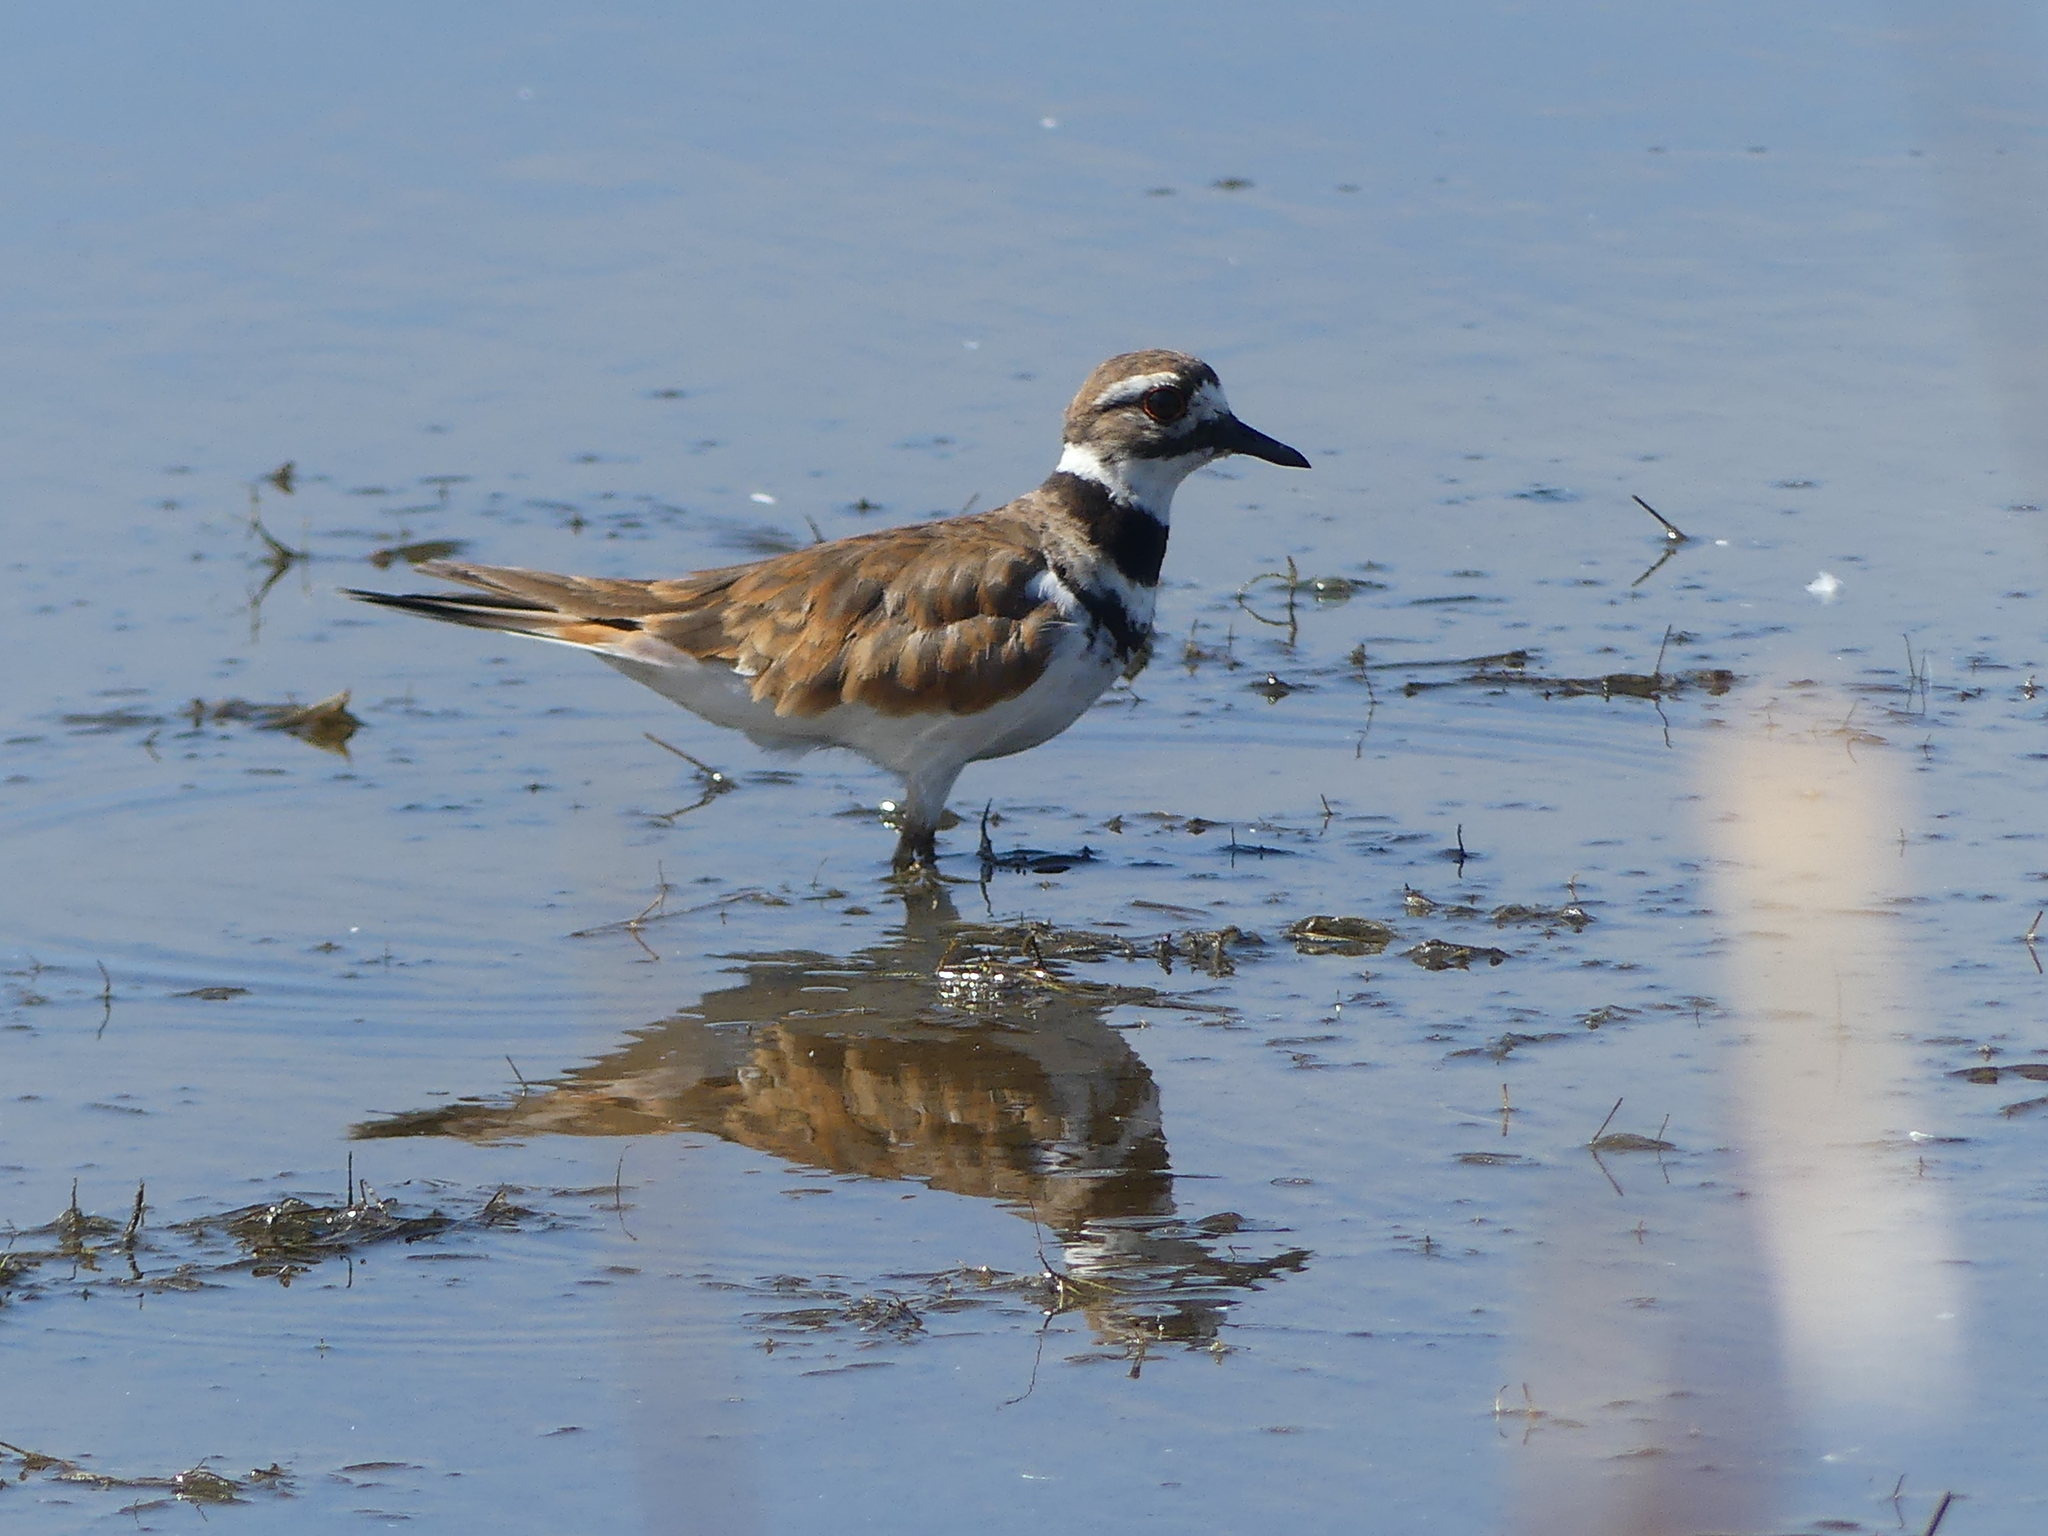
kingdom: Animalia
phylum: Chordata
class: Aves
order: Charadriiformes
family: Charadriidae
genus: Charadrius
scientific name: Charadrius vociferus
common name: Killdeer
